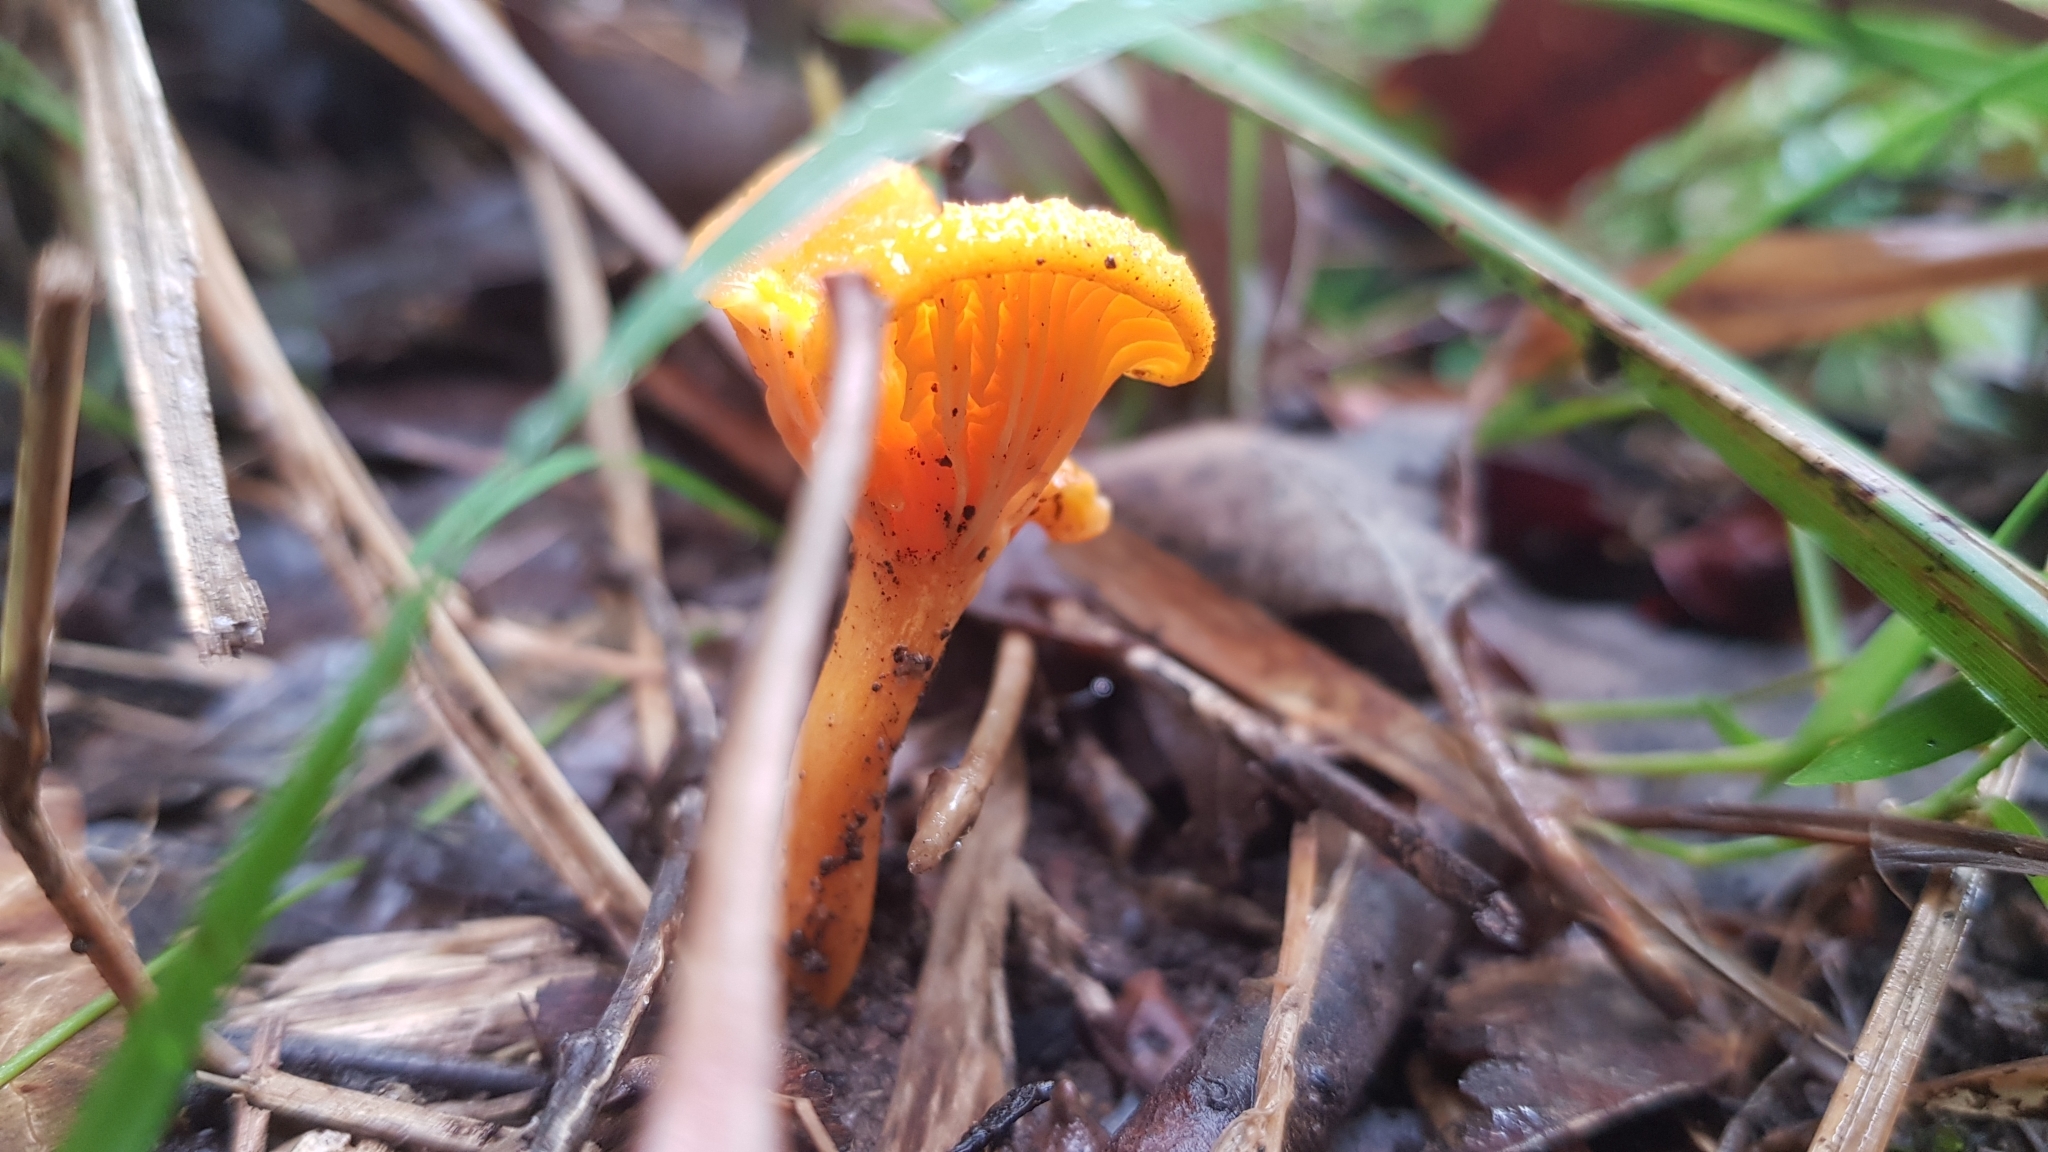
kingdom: Fungi
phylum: Basidiomycota
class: Agaricomycetes
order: Cantharellales
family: Hydnaceae
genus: Cantharellus
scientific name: Cantharellus
